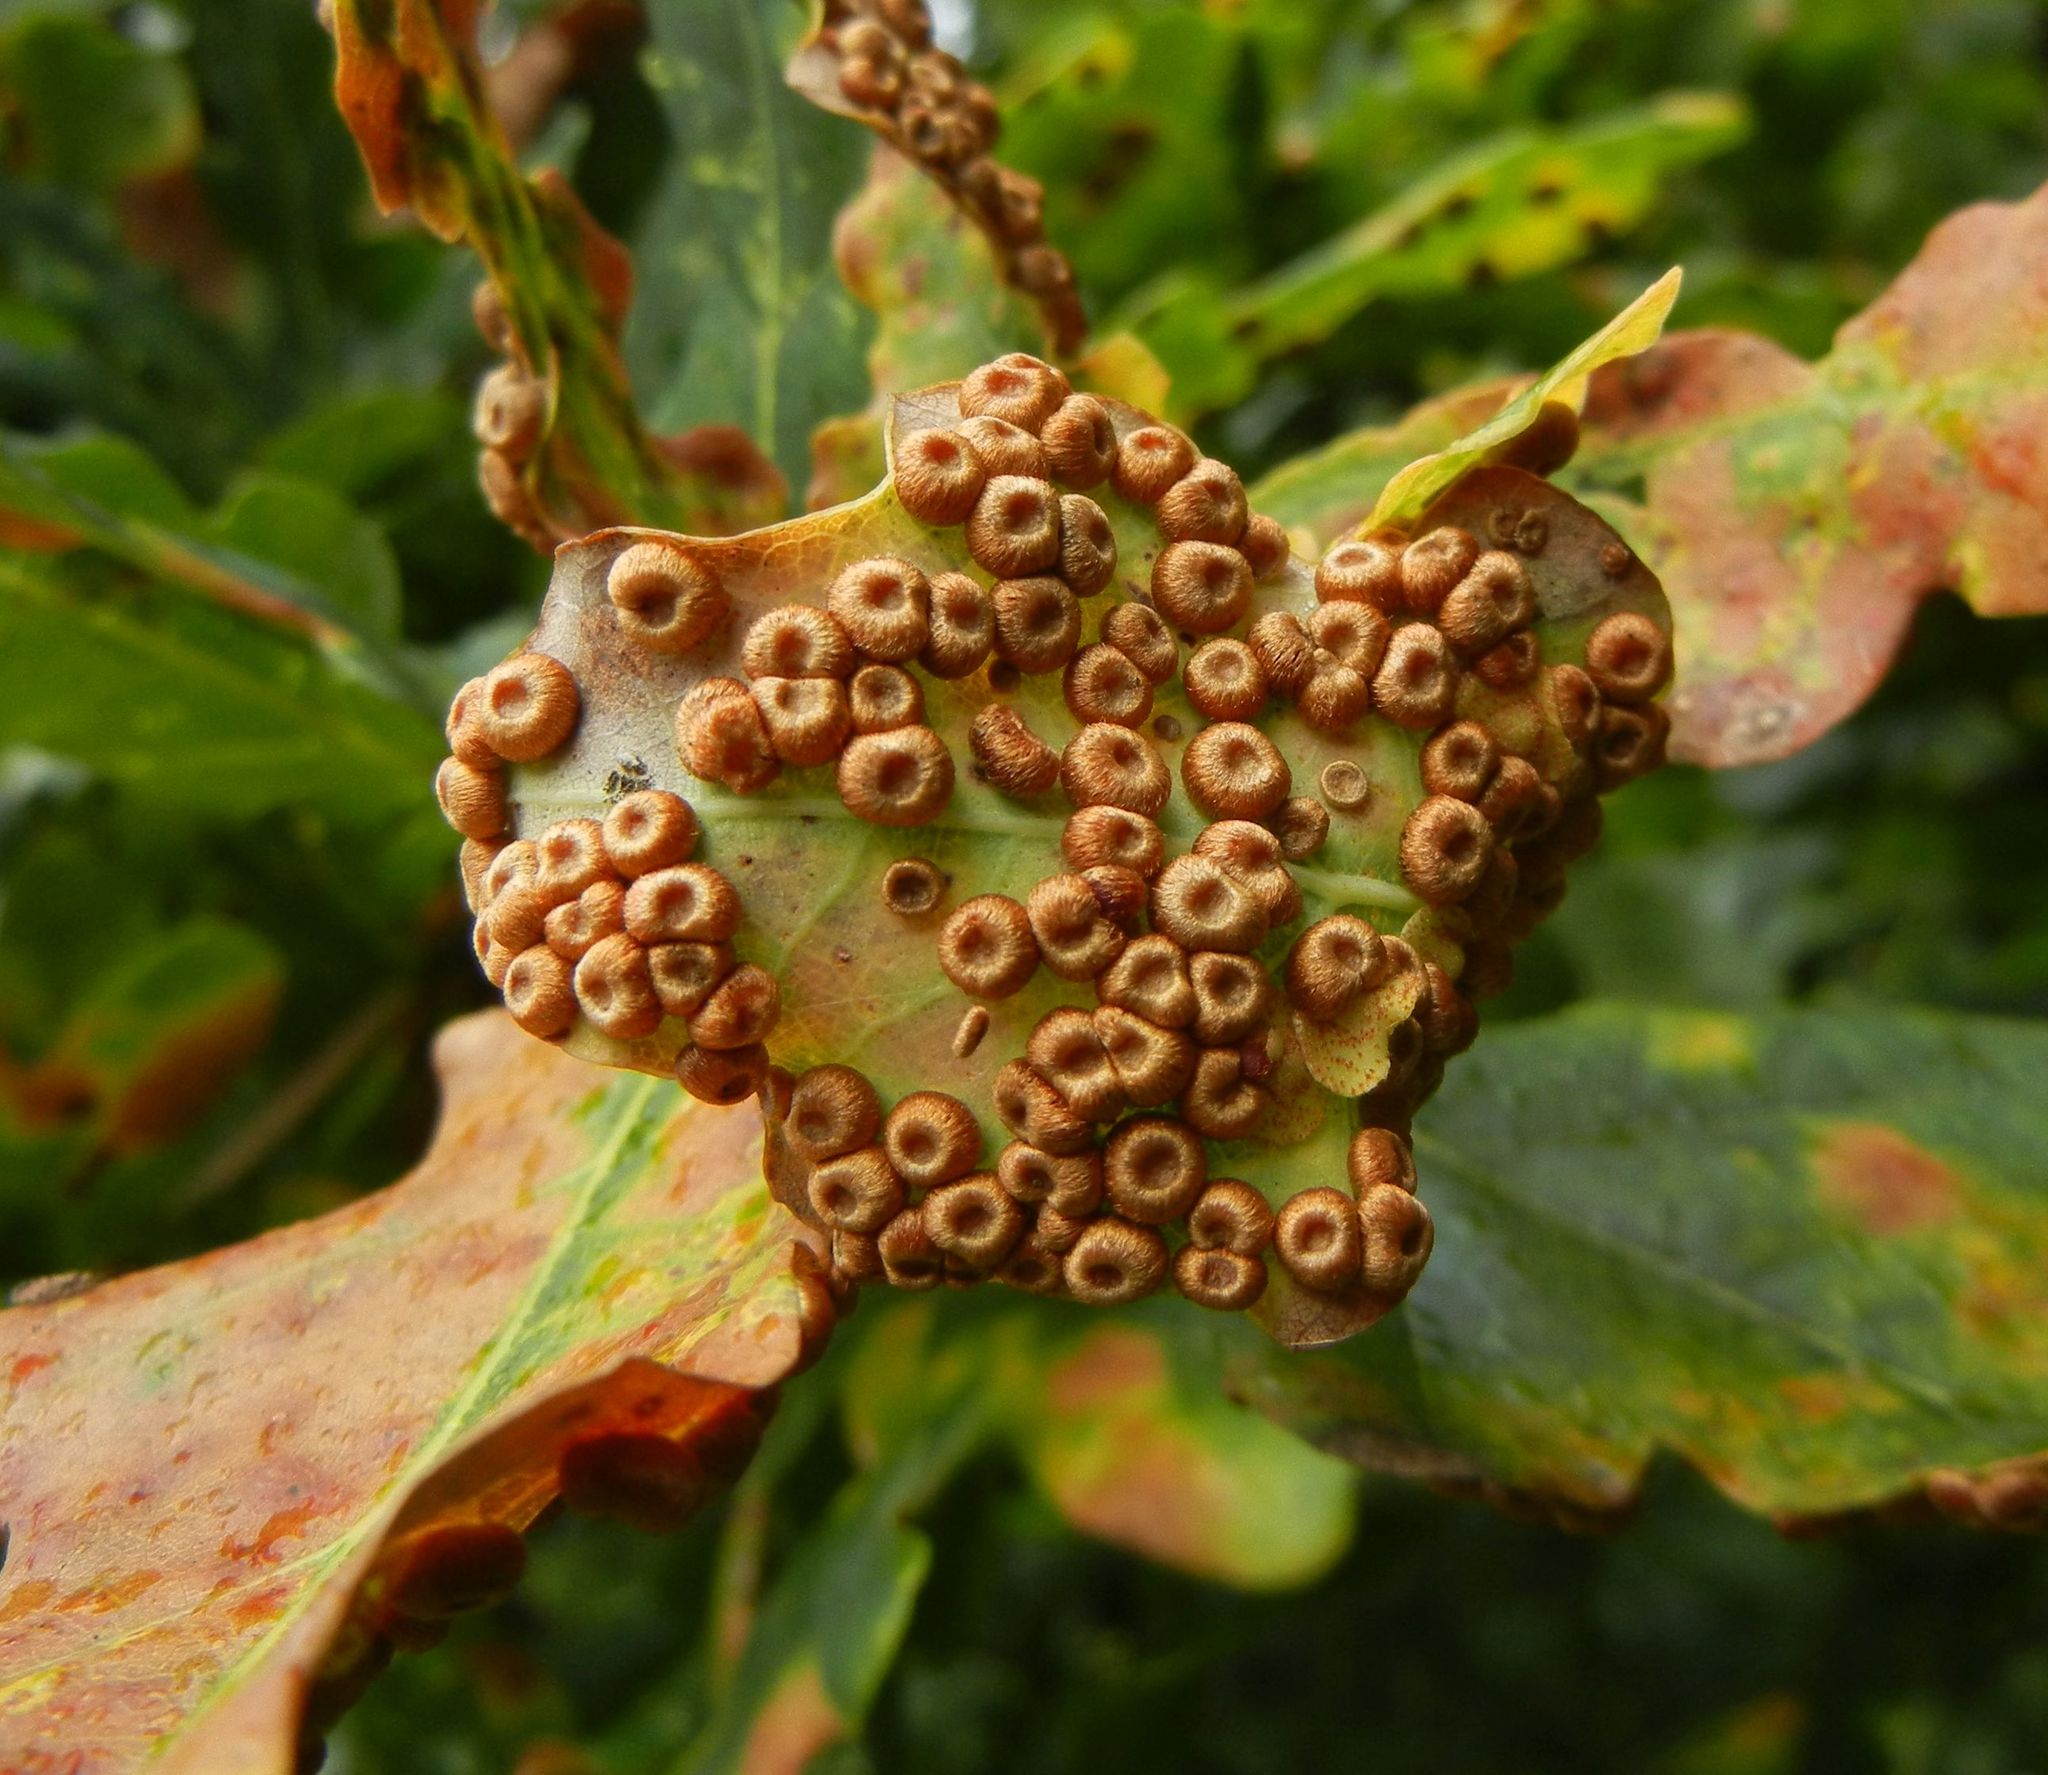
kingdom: Animalia
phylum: Arthropoda
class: Insecta
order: Hymenoptera
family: Cynipidae
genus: Neuroterus
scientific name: Neuroterus numismalis
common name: Silk-button spangle gall
